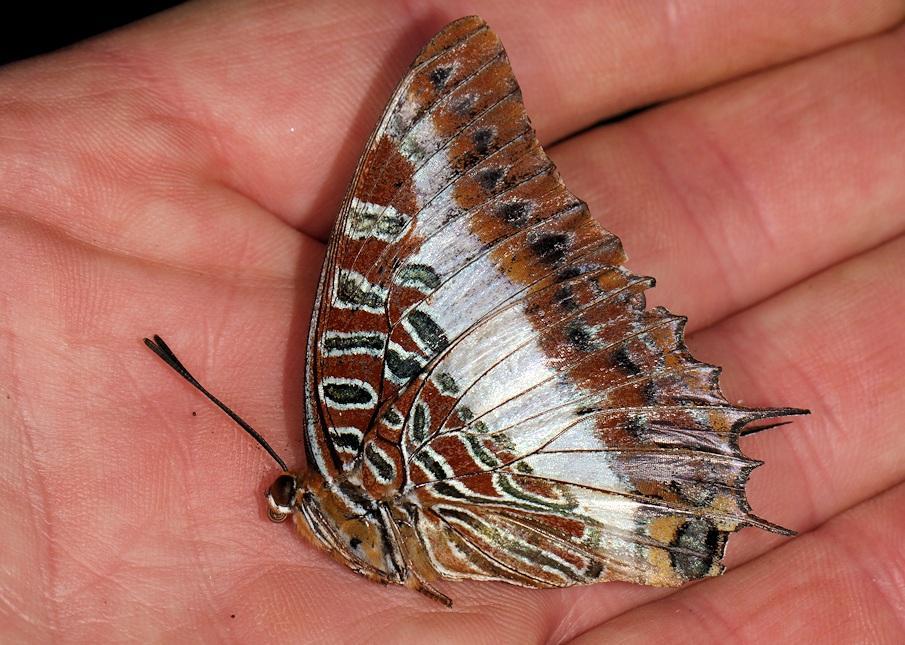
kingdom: Animalia
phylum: Arthropoda
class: Insecta
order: Lepidoptera
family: Nymphalidae
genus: Charaxes
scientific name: Charaxes brutus
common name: White-barred charaxes
